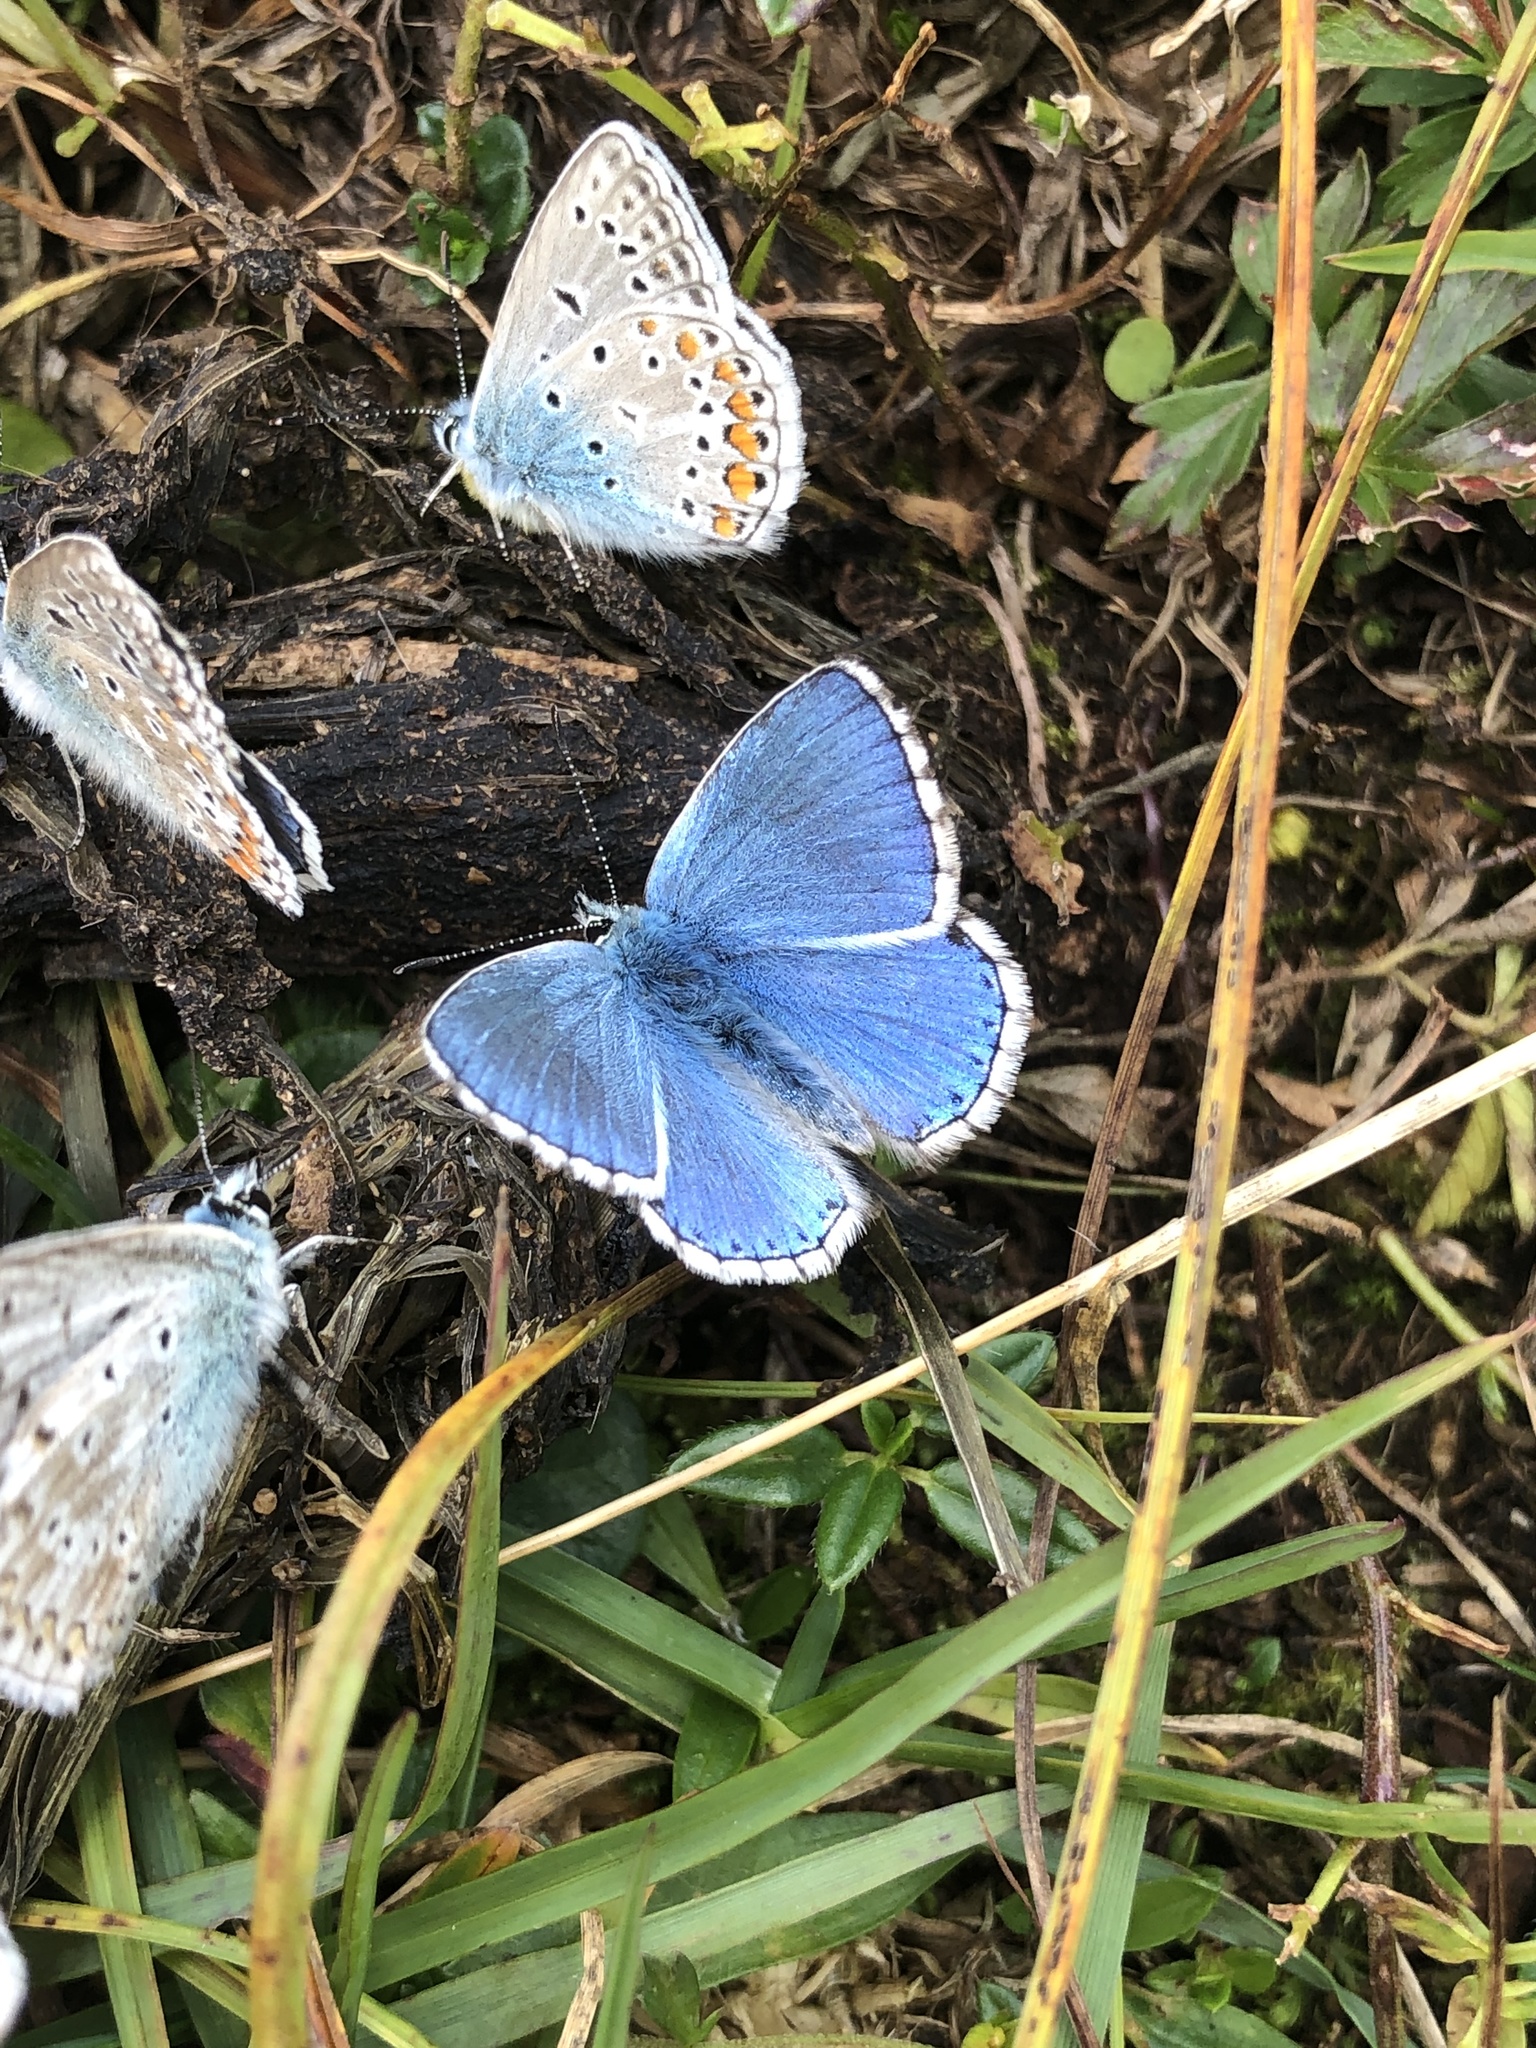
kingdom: Animalia
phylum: Arthropoda
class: Insecta
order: Lepidoptera
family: Lycaenidae
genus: Lysandra
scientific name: Lysandra bellargus
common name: Adonis blue
